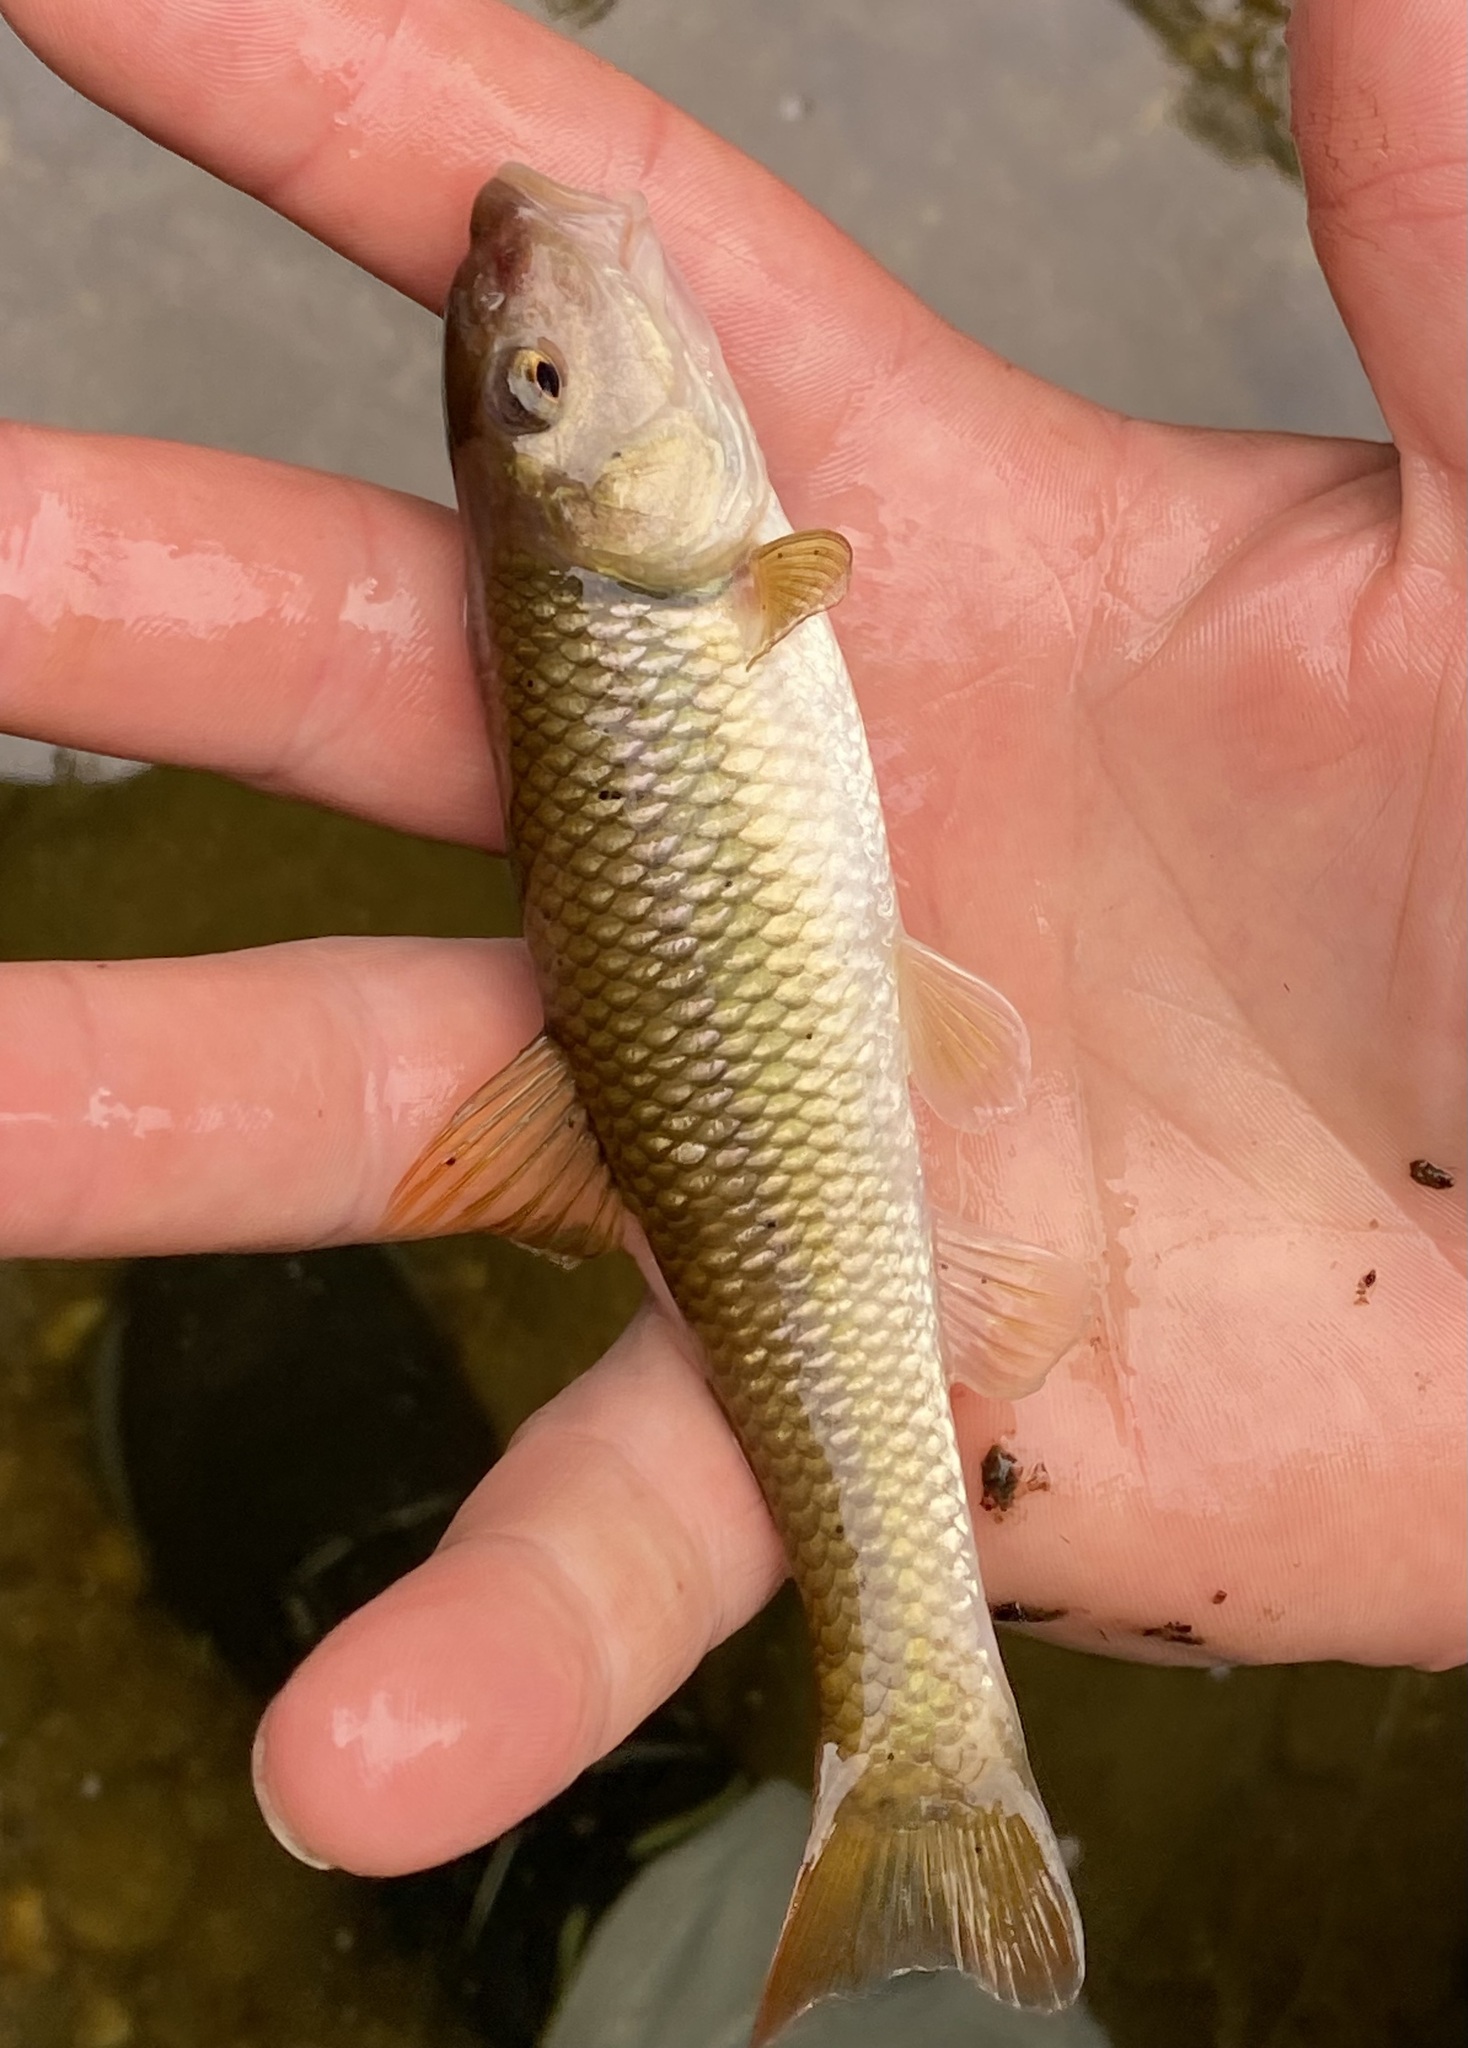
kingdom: Animalia
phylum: Chordata
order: Cypriniformes
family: Cyprinidae
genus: Nocomis
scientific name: Nocomis micropogon
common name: River chub
